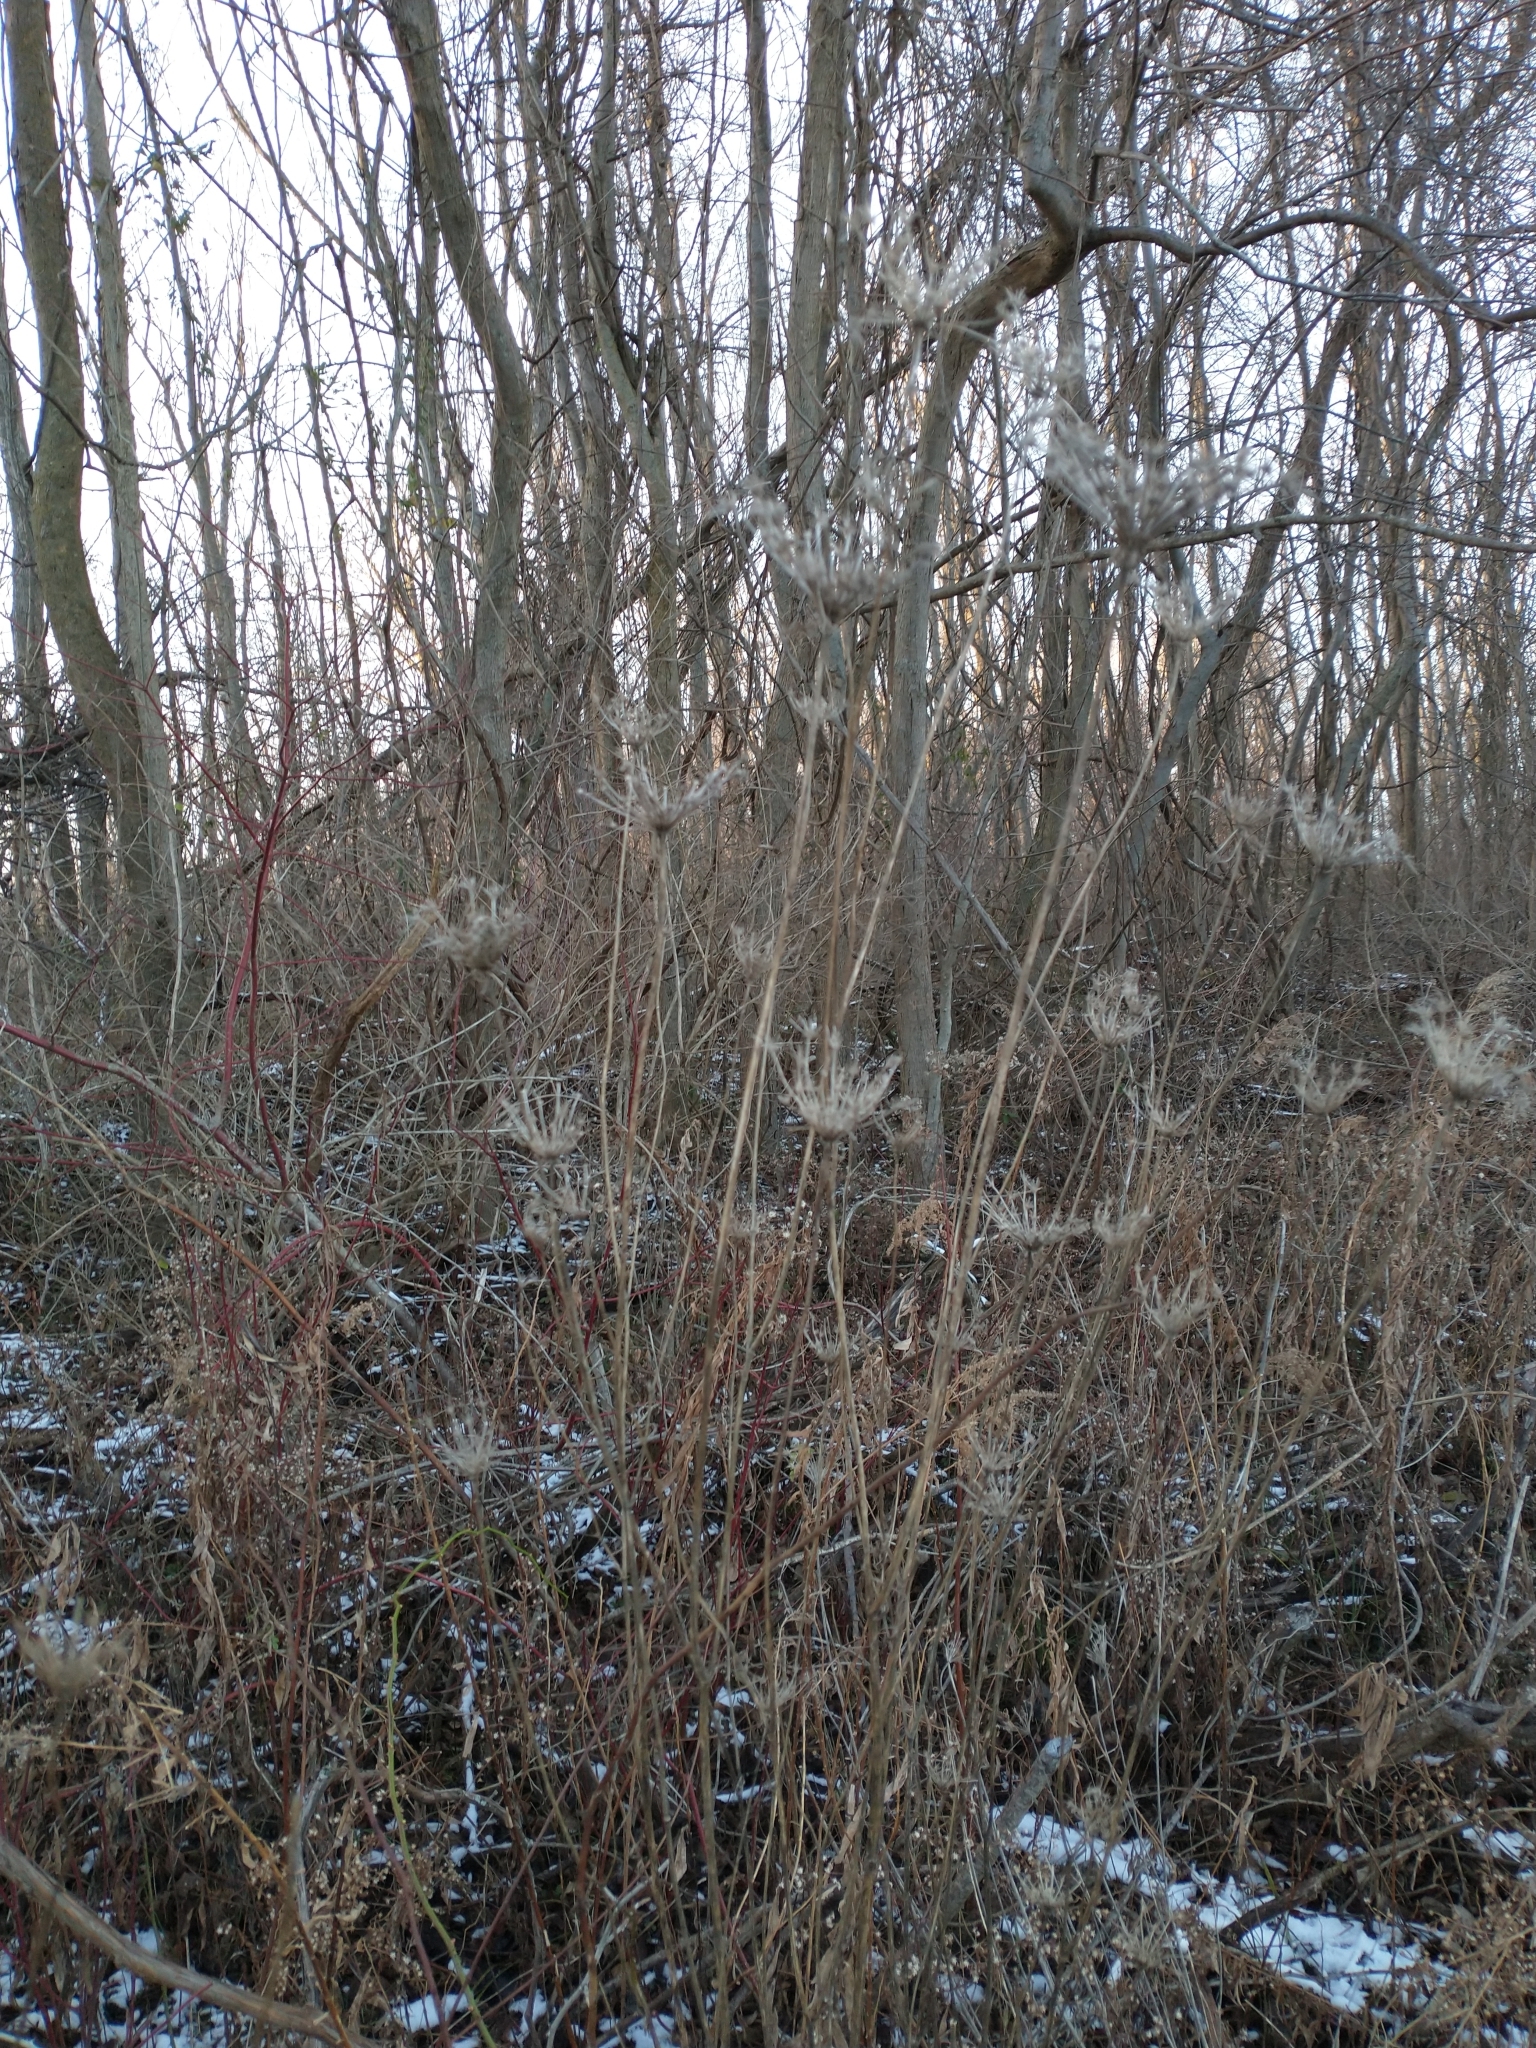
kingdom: Plantae
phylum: Tracheophyta
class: Magnoliopsida
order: Apiales
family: Apiaceae
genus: Daucus
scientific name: Daucus carota
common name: Wild carrot
